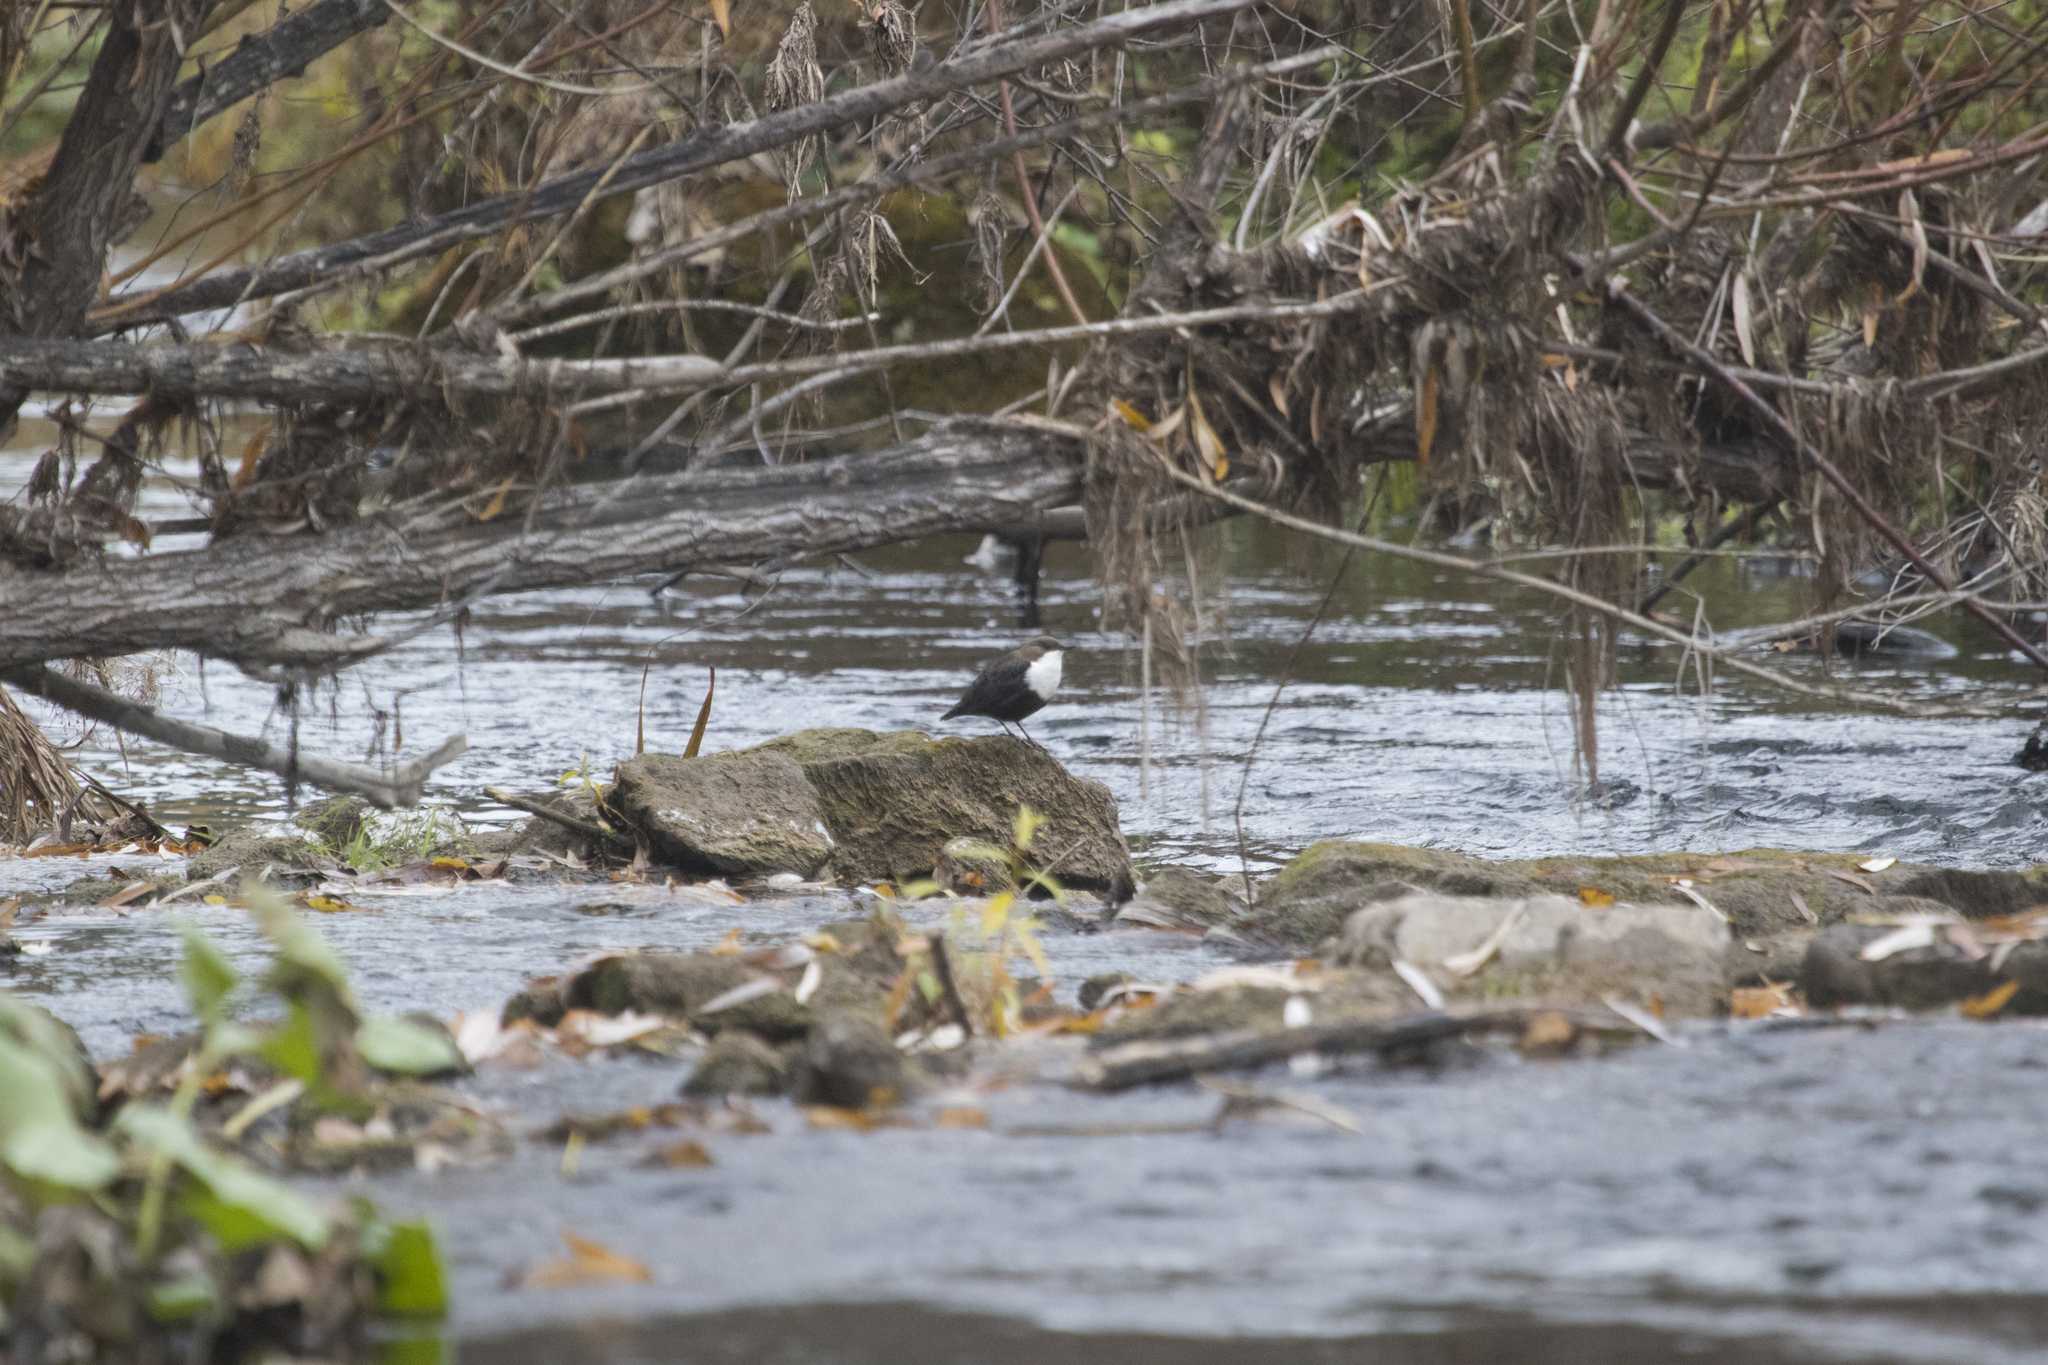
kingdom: Animalia
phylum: Chordata
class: Aves
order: Passeriformes
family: Cinclidae
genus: Cinclus
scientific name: Cinclus cinclus
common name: White-throated dipper
